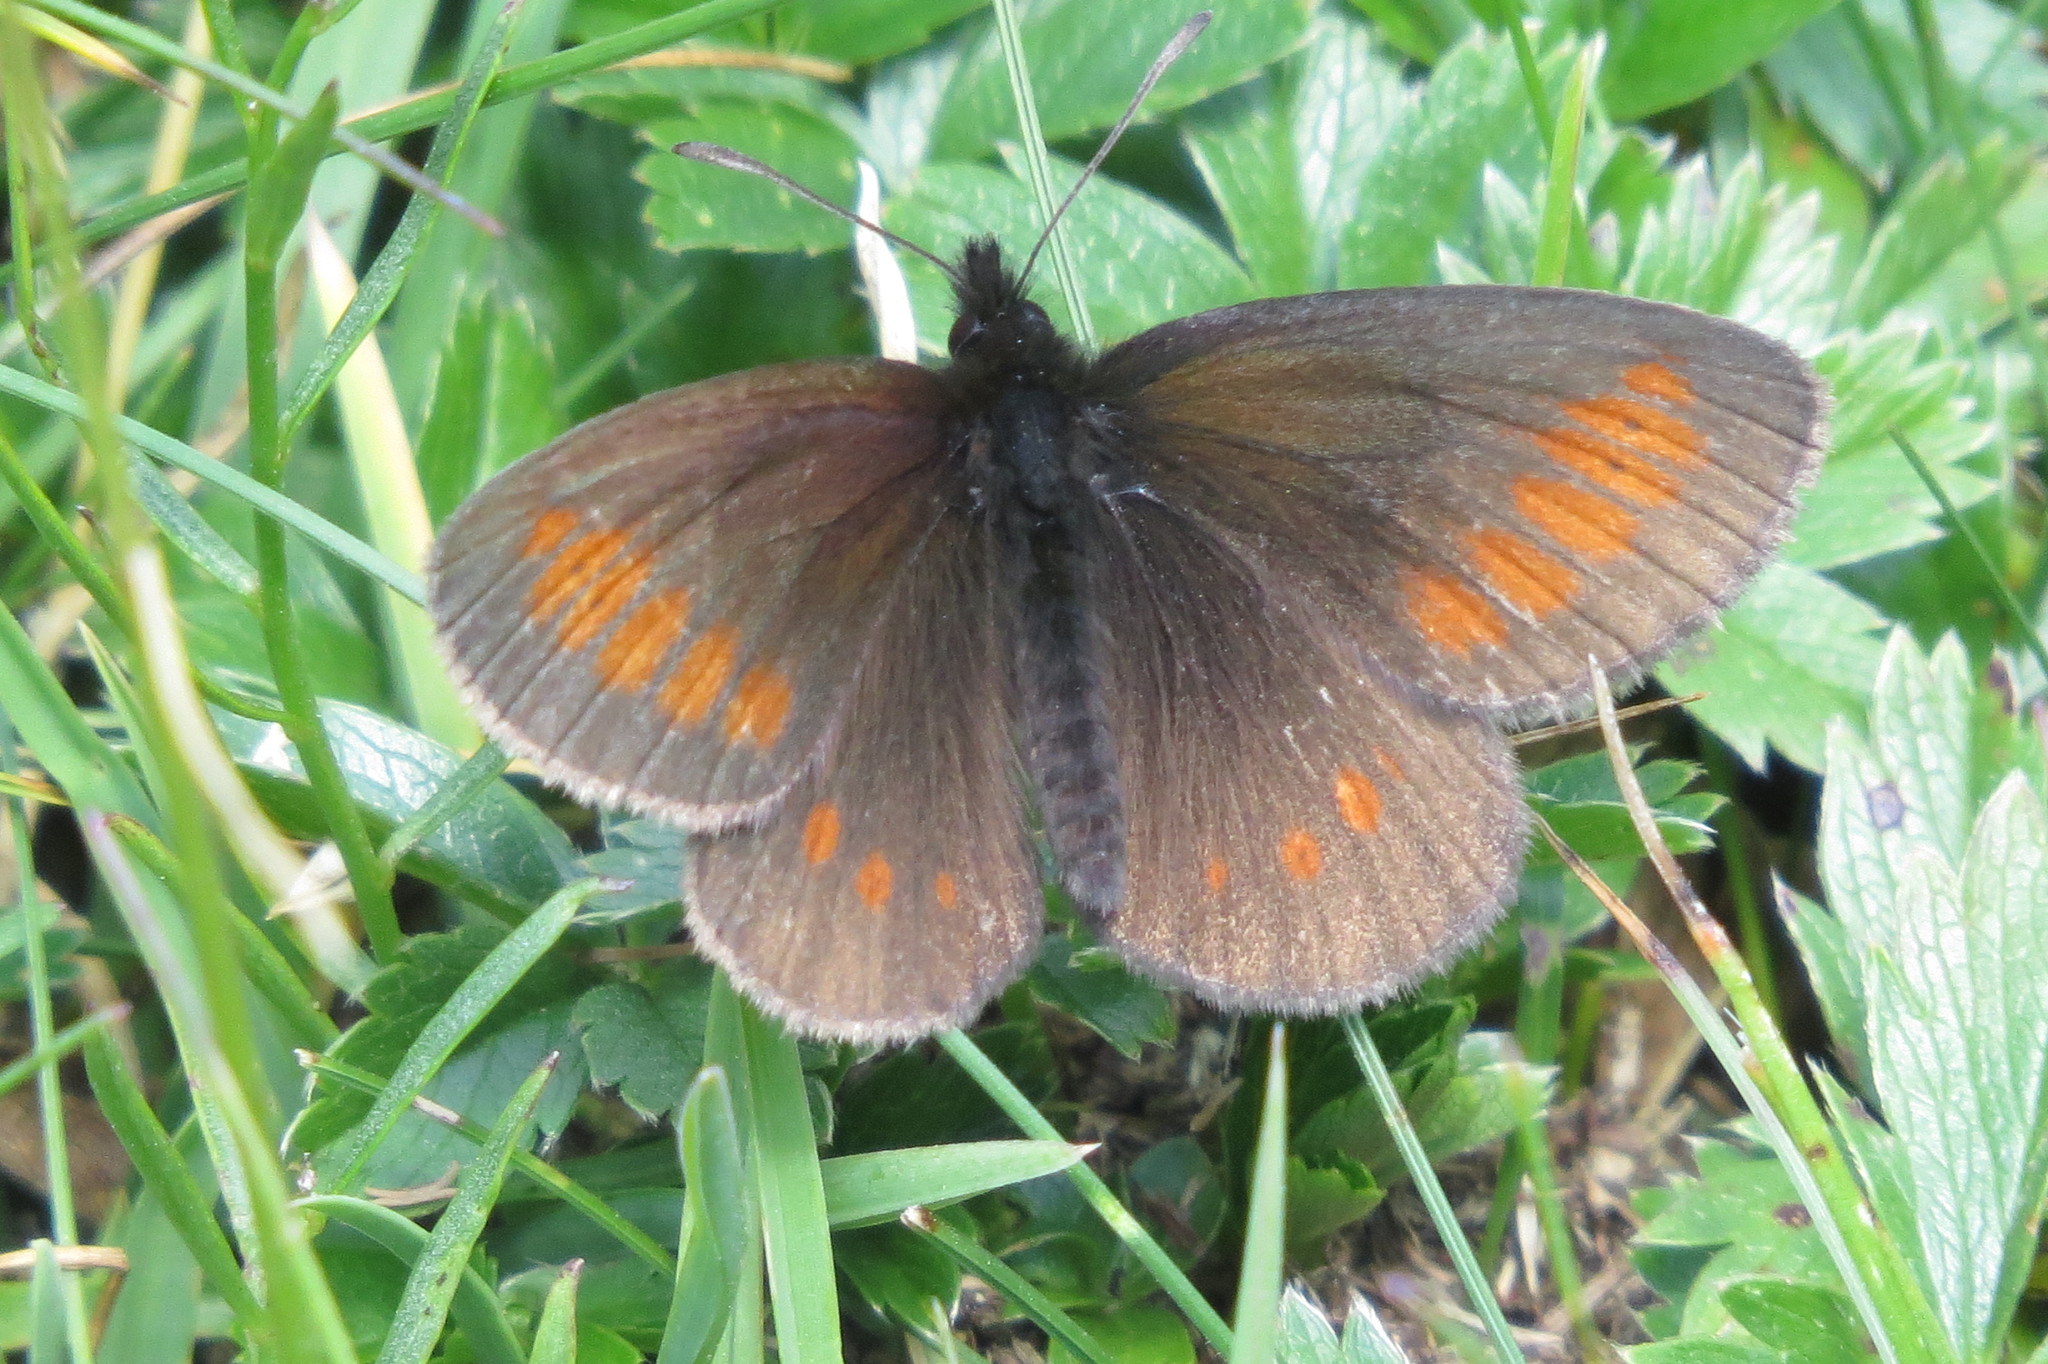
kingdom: Animalia
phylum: Arthropoda
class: Insecta
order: Lepidoptera
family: Nymphalidae
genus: Erebia
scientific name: Erebia melampus
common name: Lesser mountain ringlet
